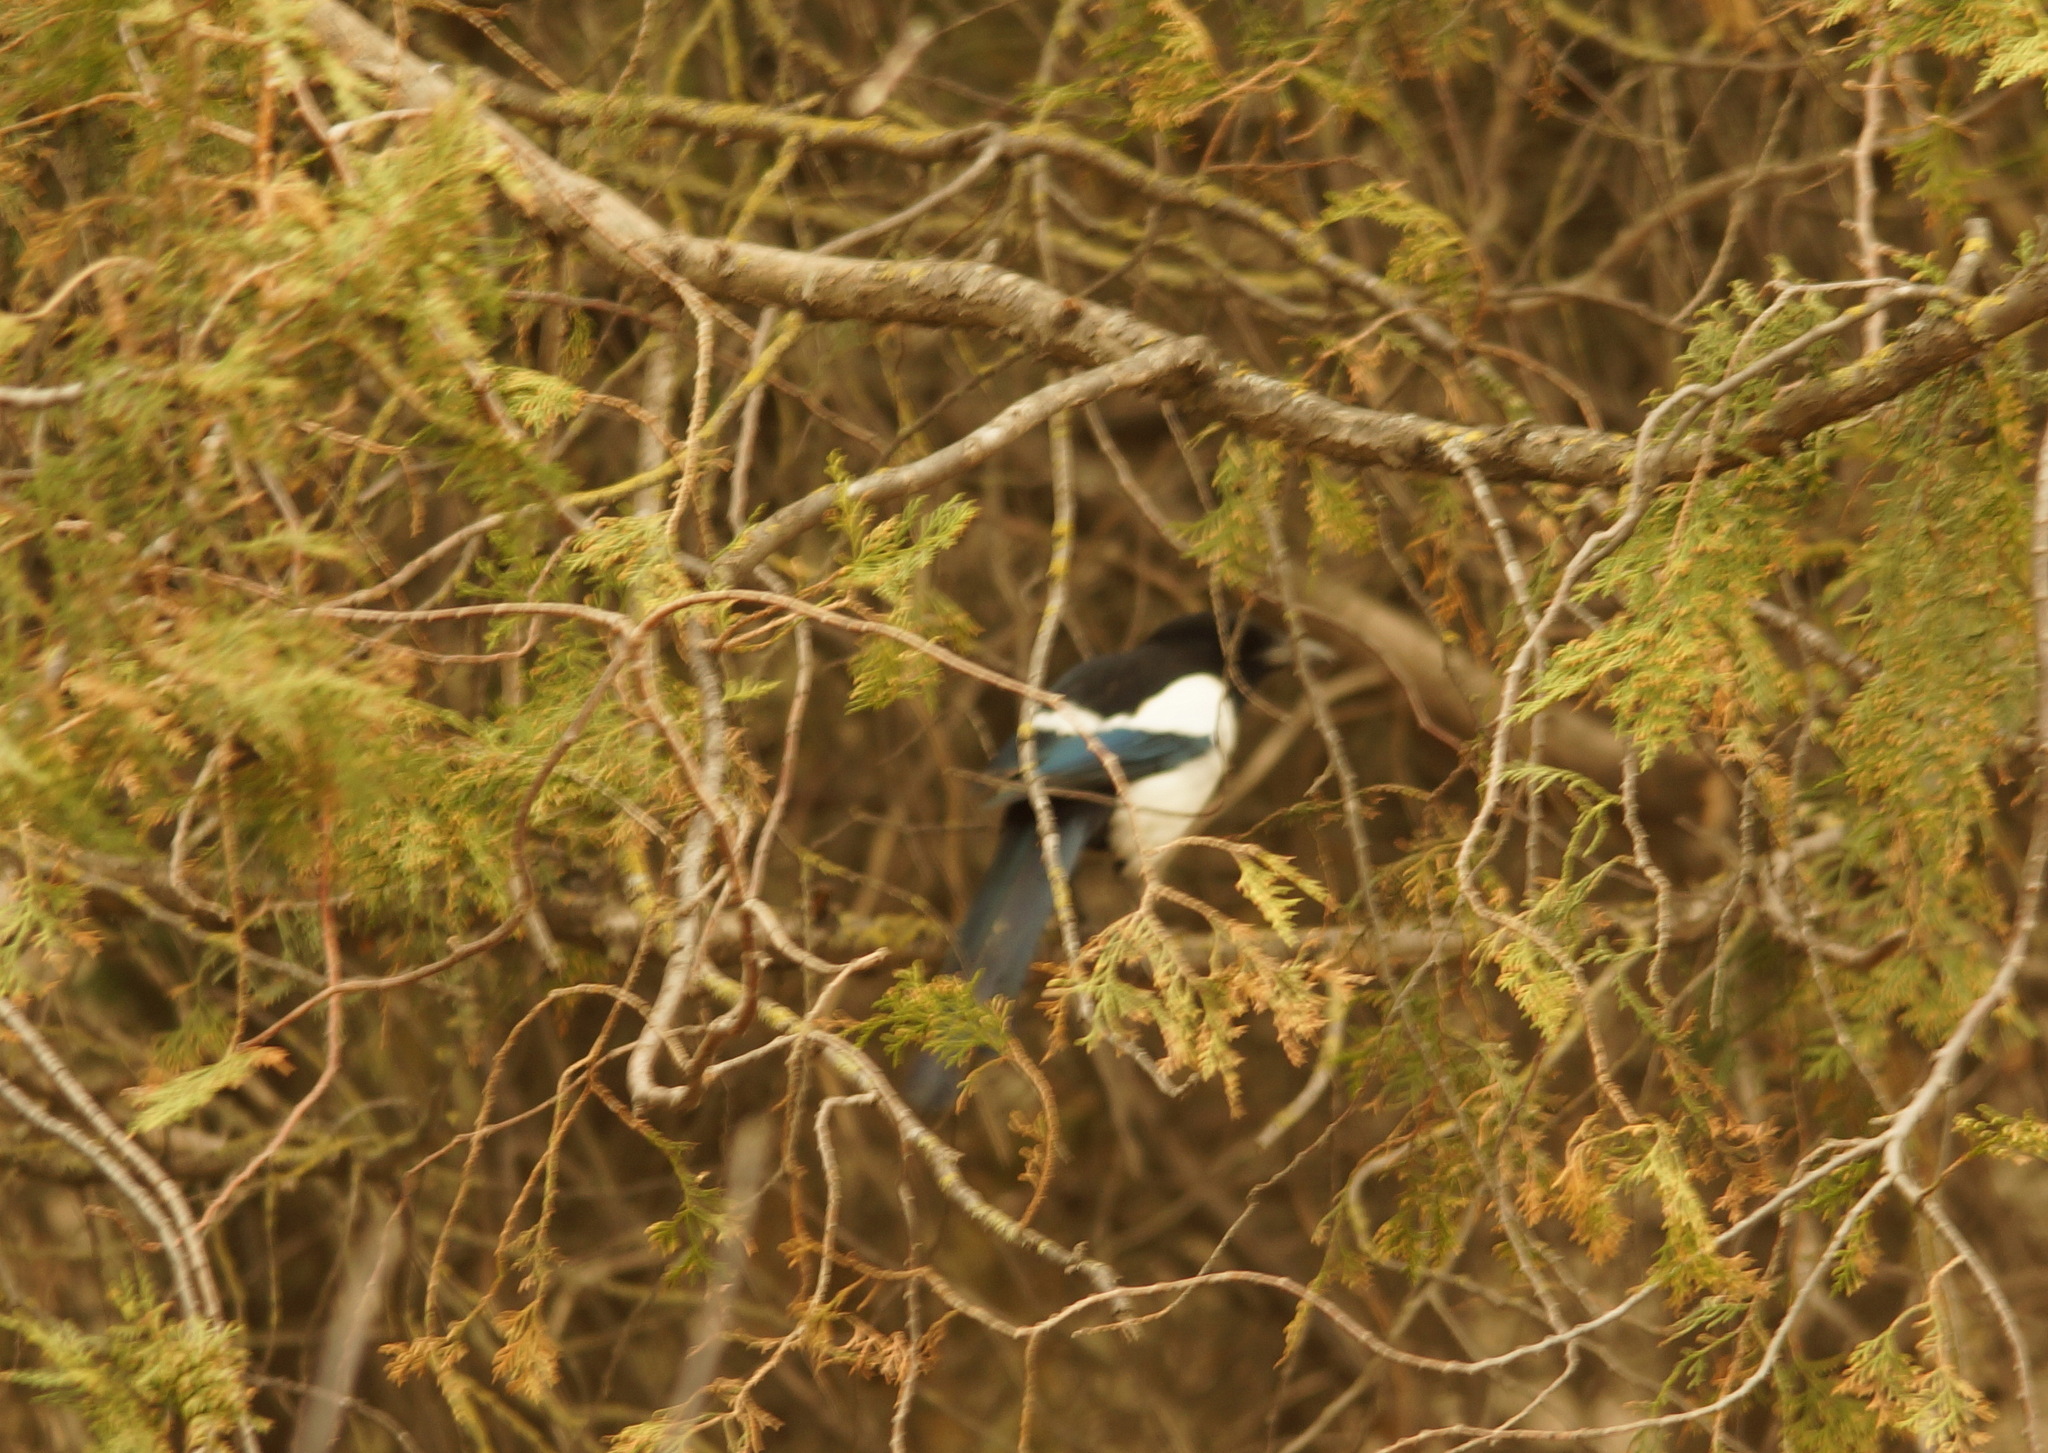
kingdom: Animalia
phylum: Chordata
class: Aves
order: Passeriformes
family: Corvidae
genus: Pica
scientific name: Pica pica
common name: Eurasian magpie
